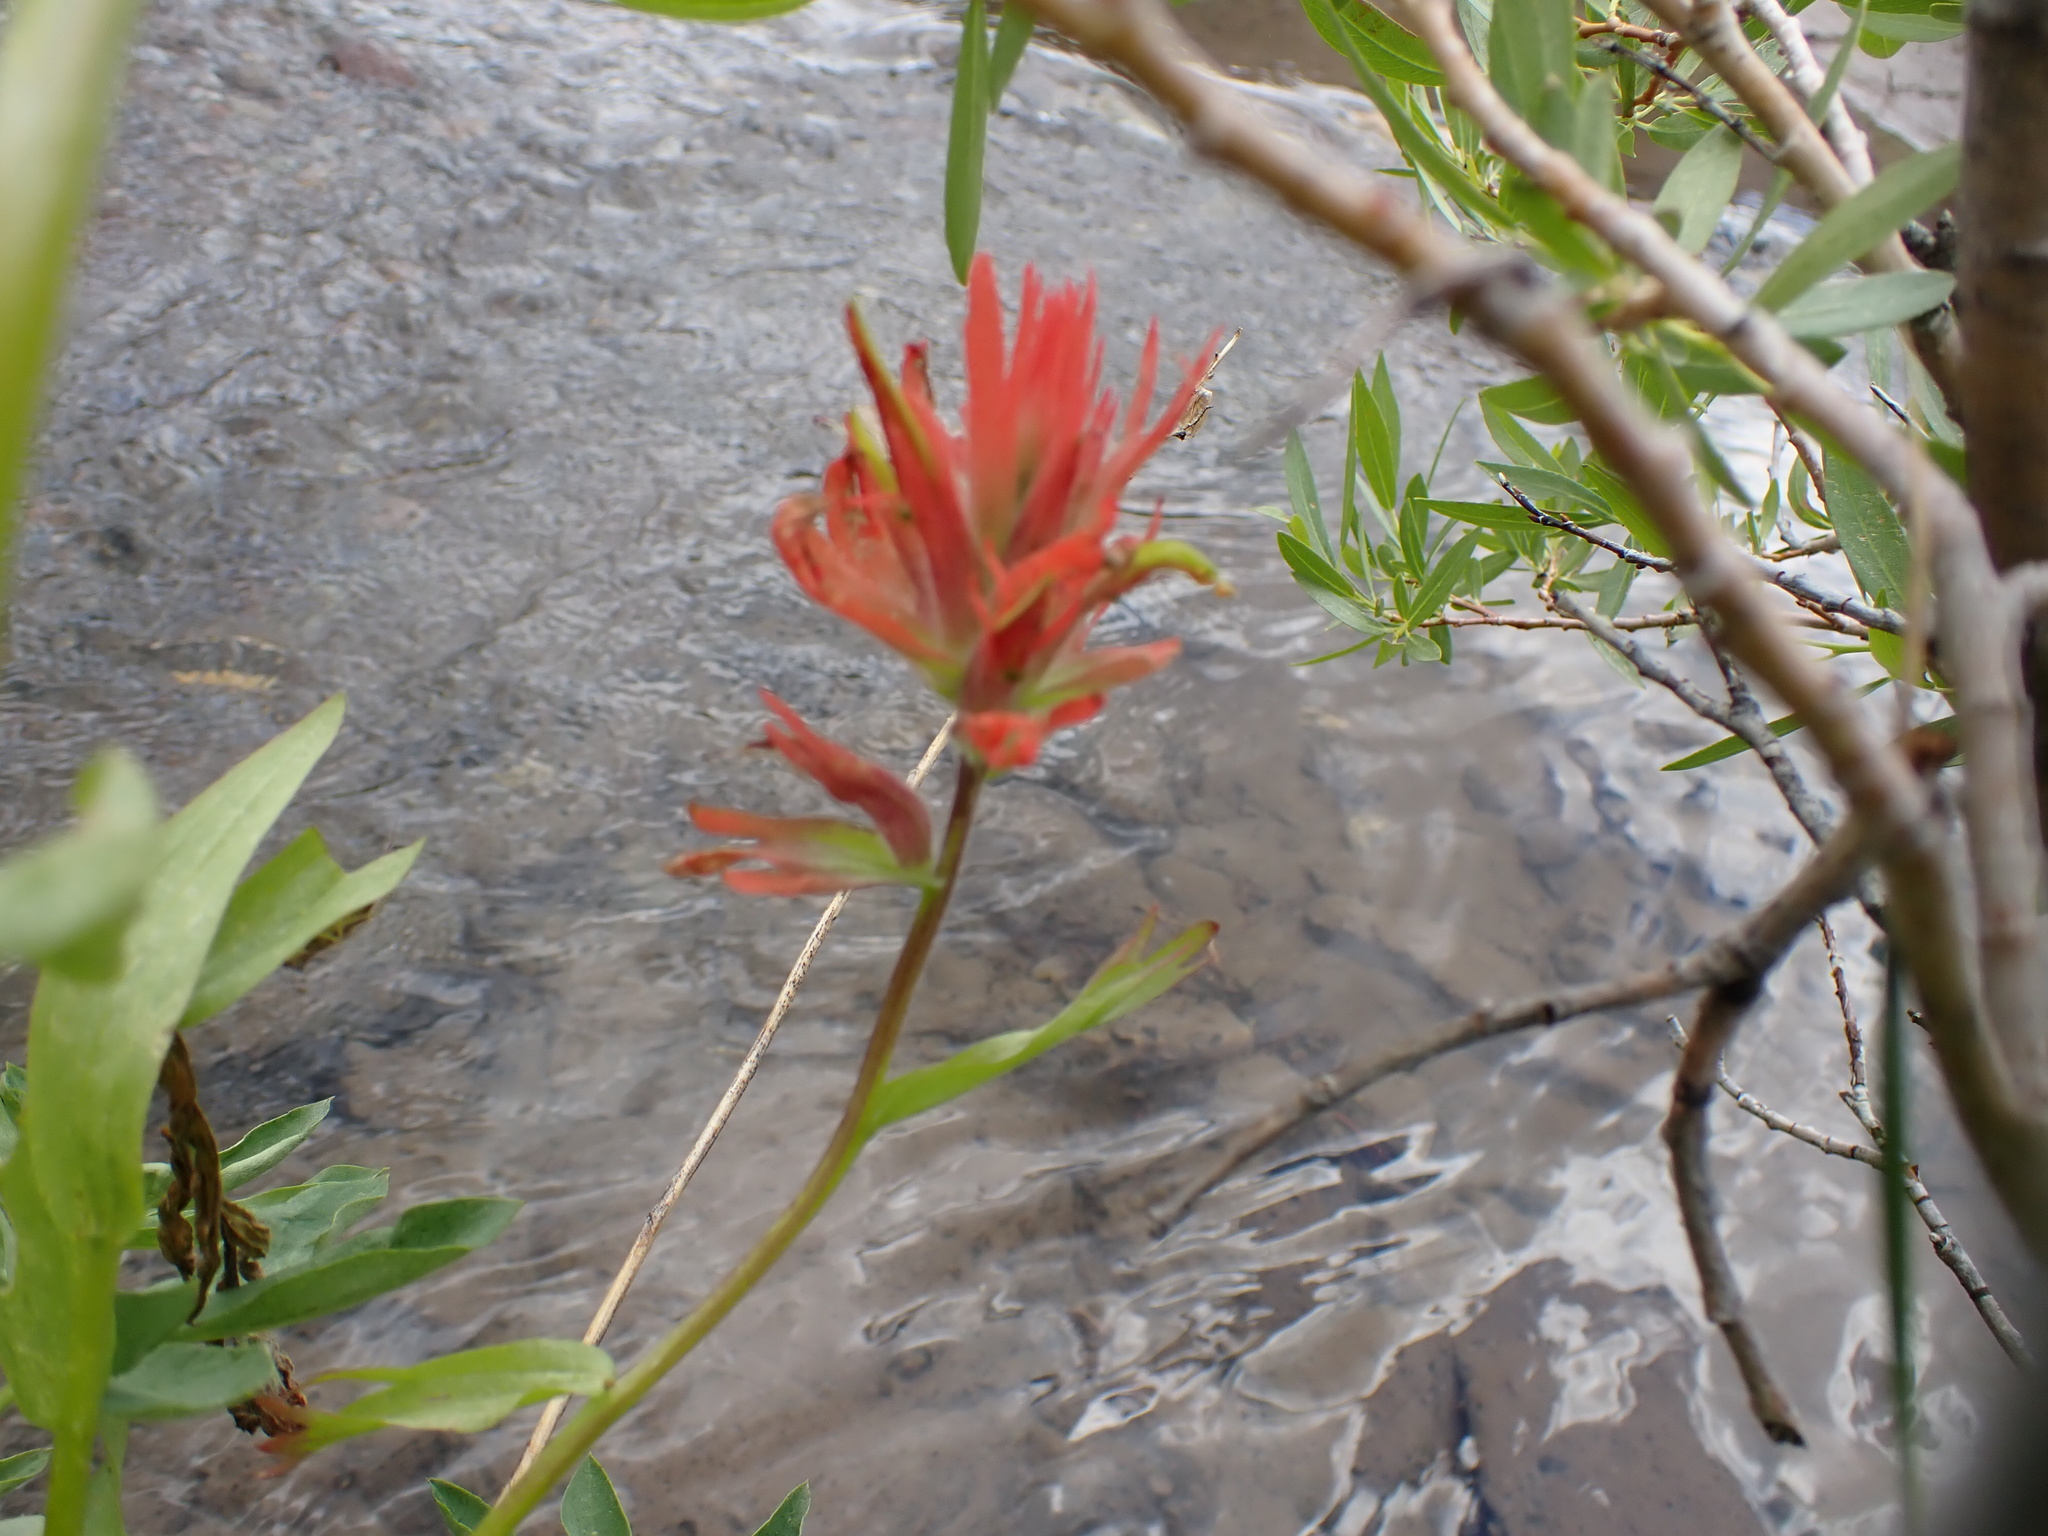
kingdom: Plantae
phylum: Tracheophyta
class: Magnoliopsida
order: Lamiales
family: Orobanchaceae
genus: Castilleja
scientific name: Castilleja miniata
